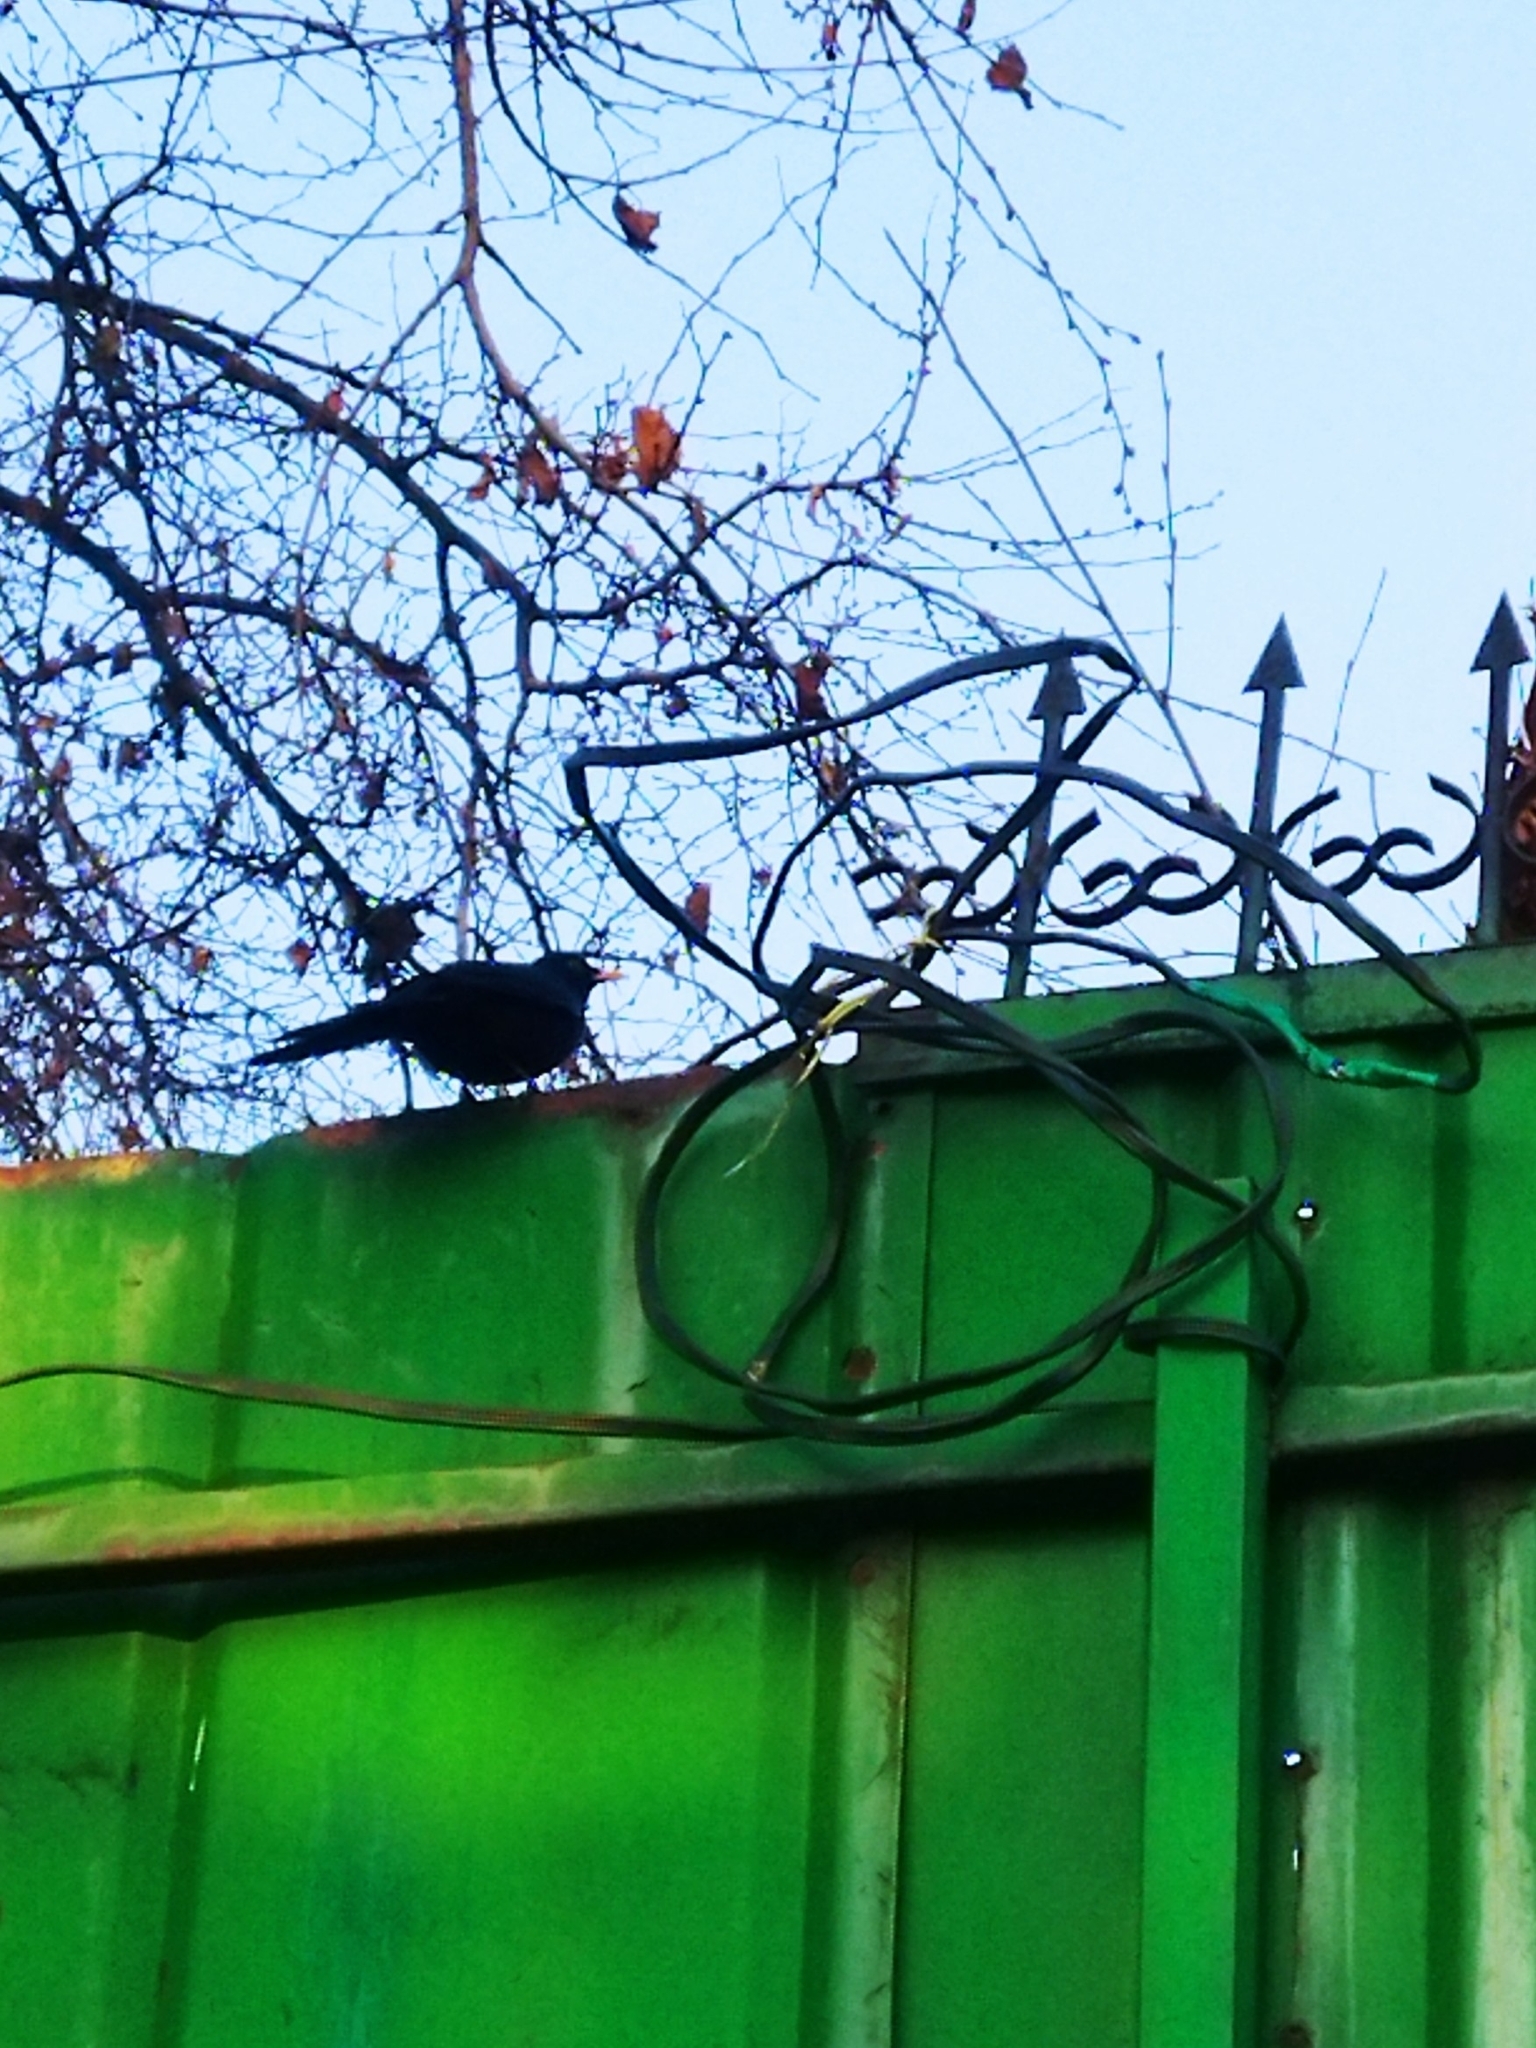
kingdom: Animalia
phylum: Chordata
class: Aves
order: Passeriformes
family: Turdidae
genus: Turdus
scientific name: Turdus merula
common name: Common blackbird
